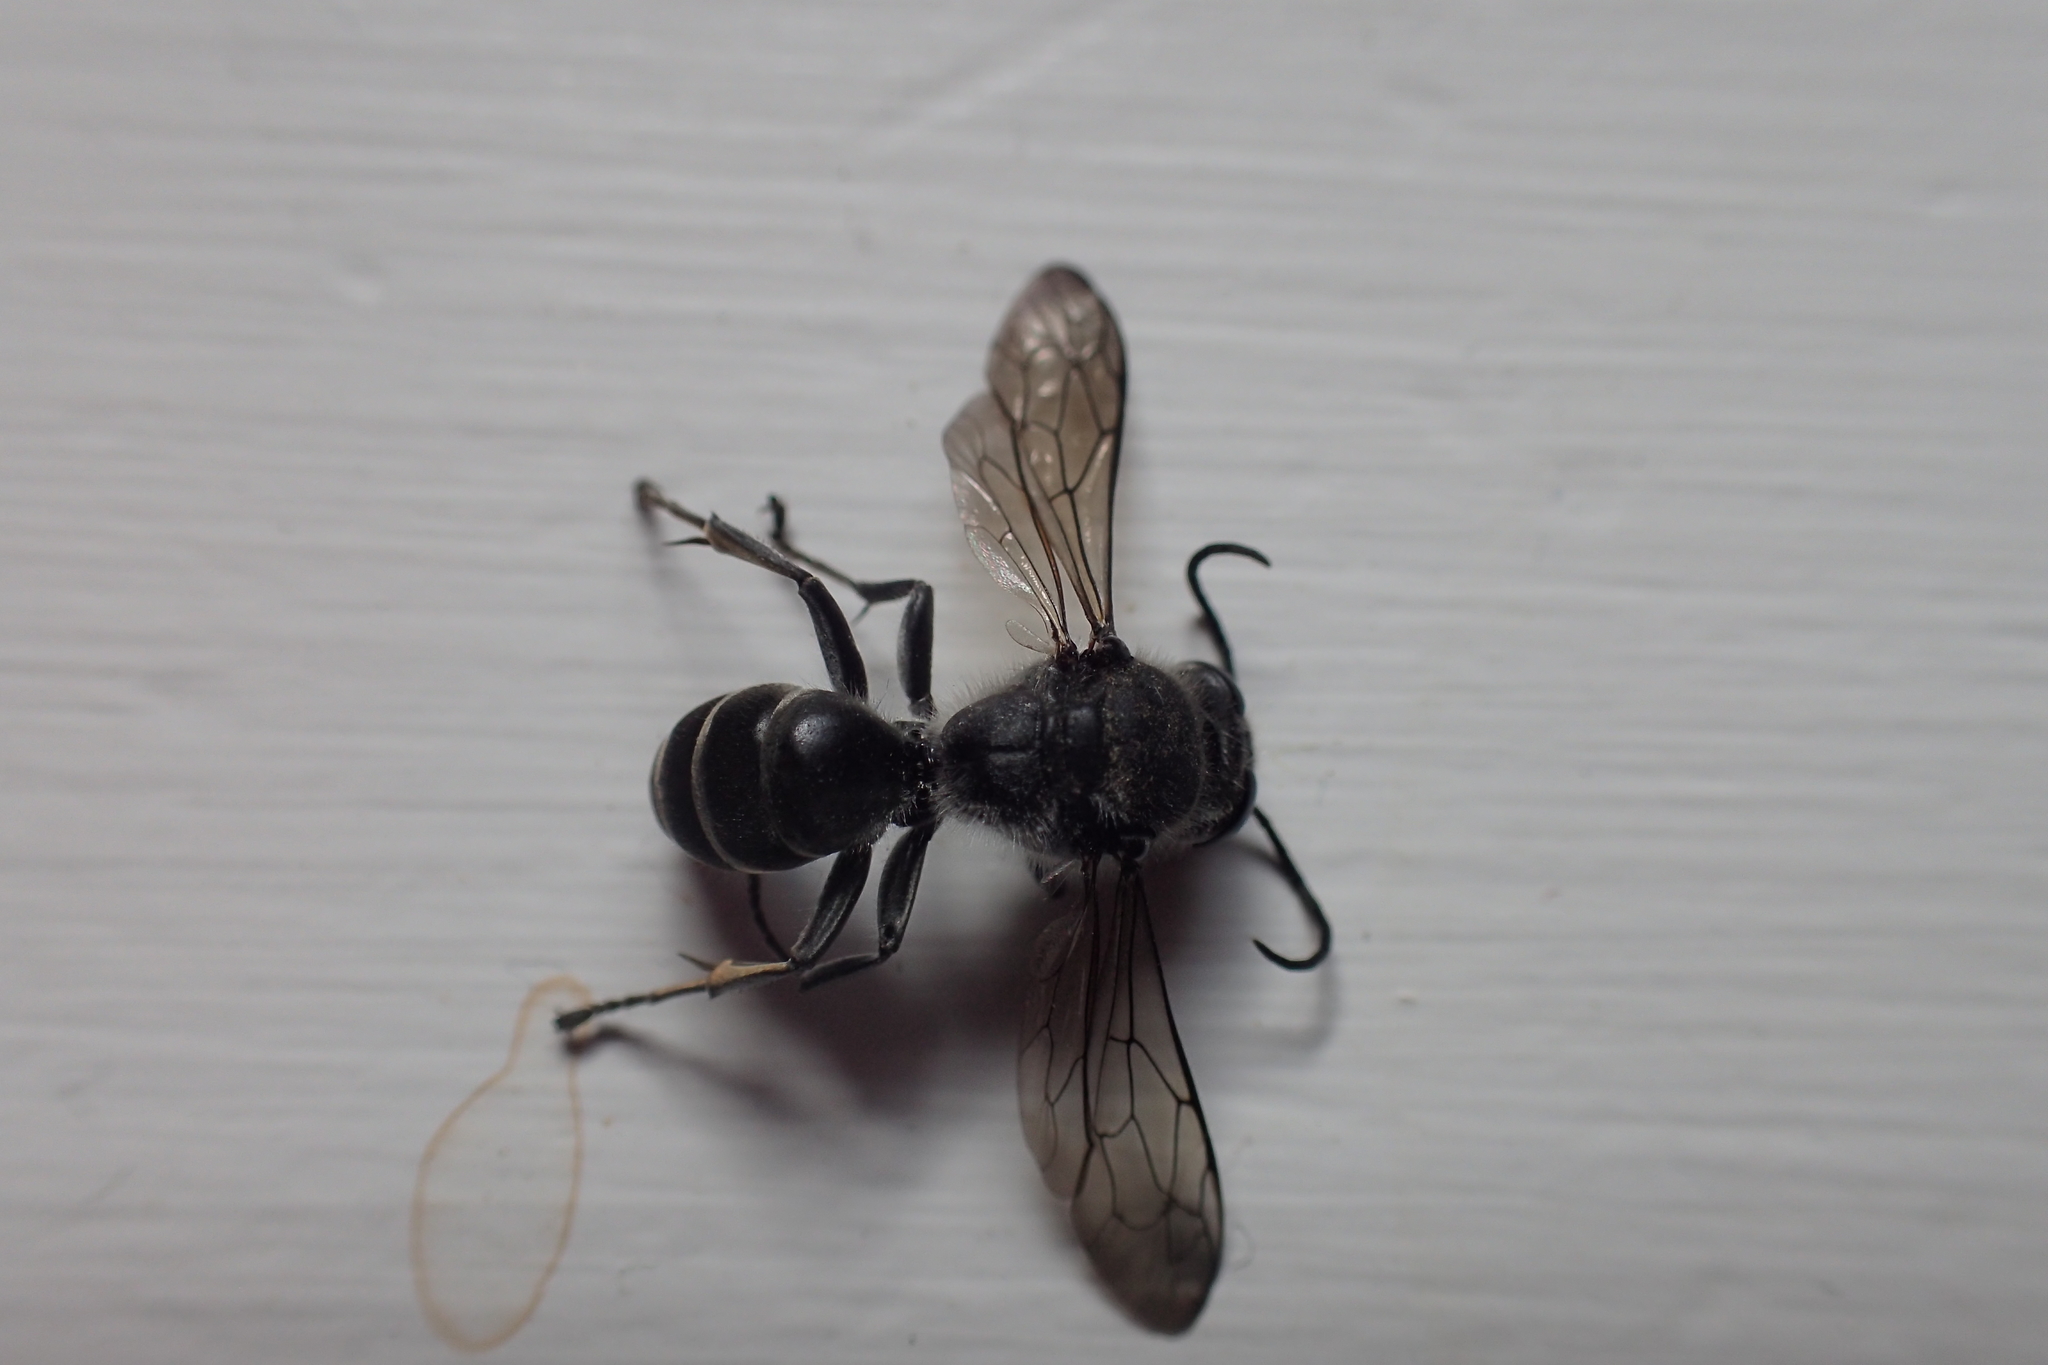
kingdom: Animalia
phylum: Arthropoda
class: Insecta
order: Hymenoptera
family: Crabronidae
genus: Pison
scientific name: Pison spinolae
